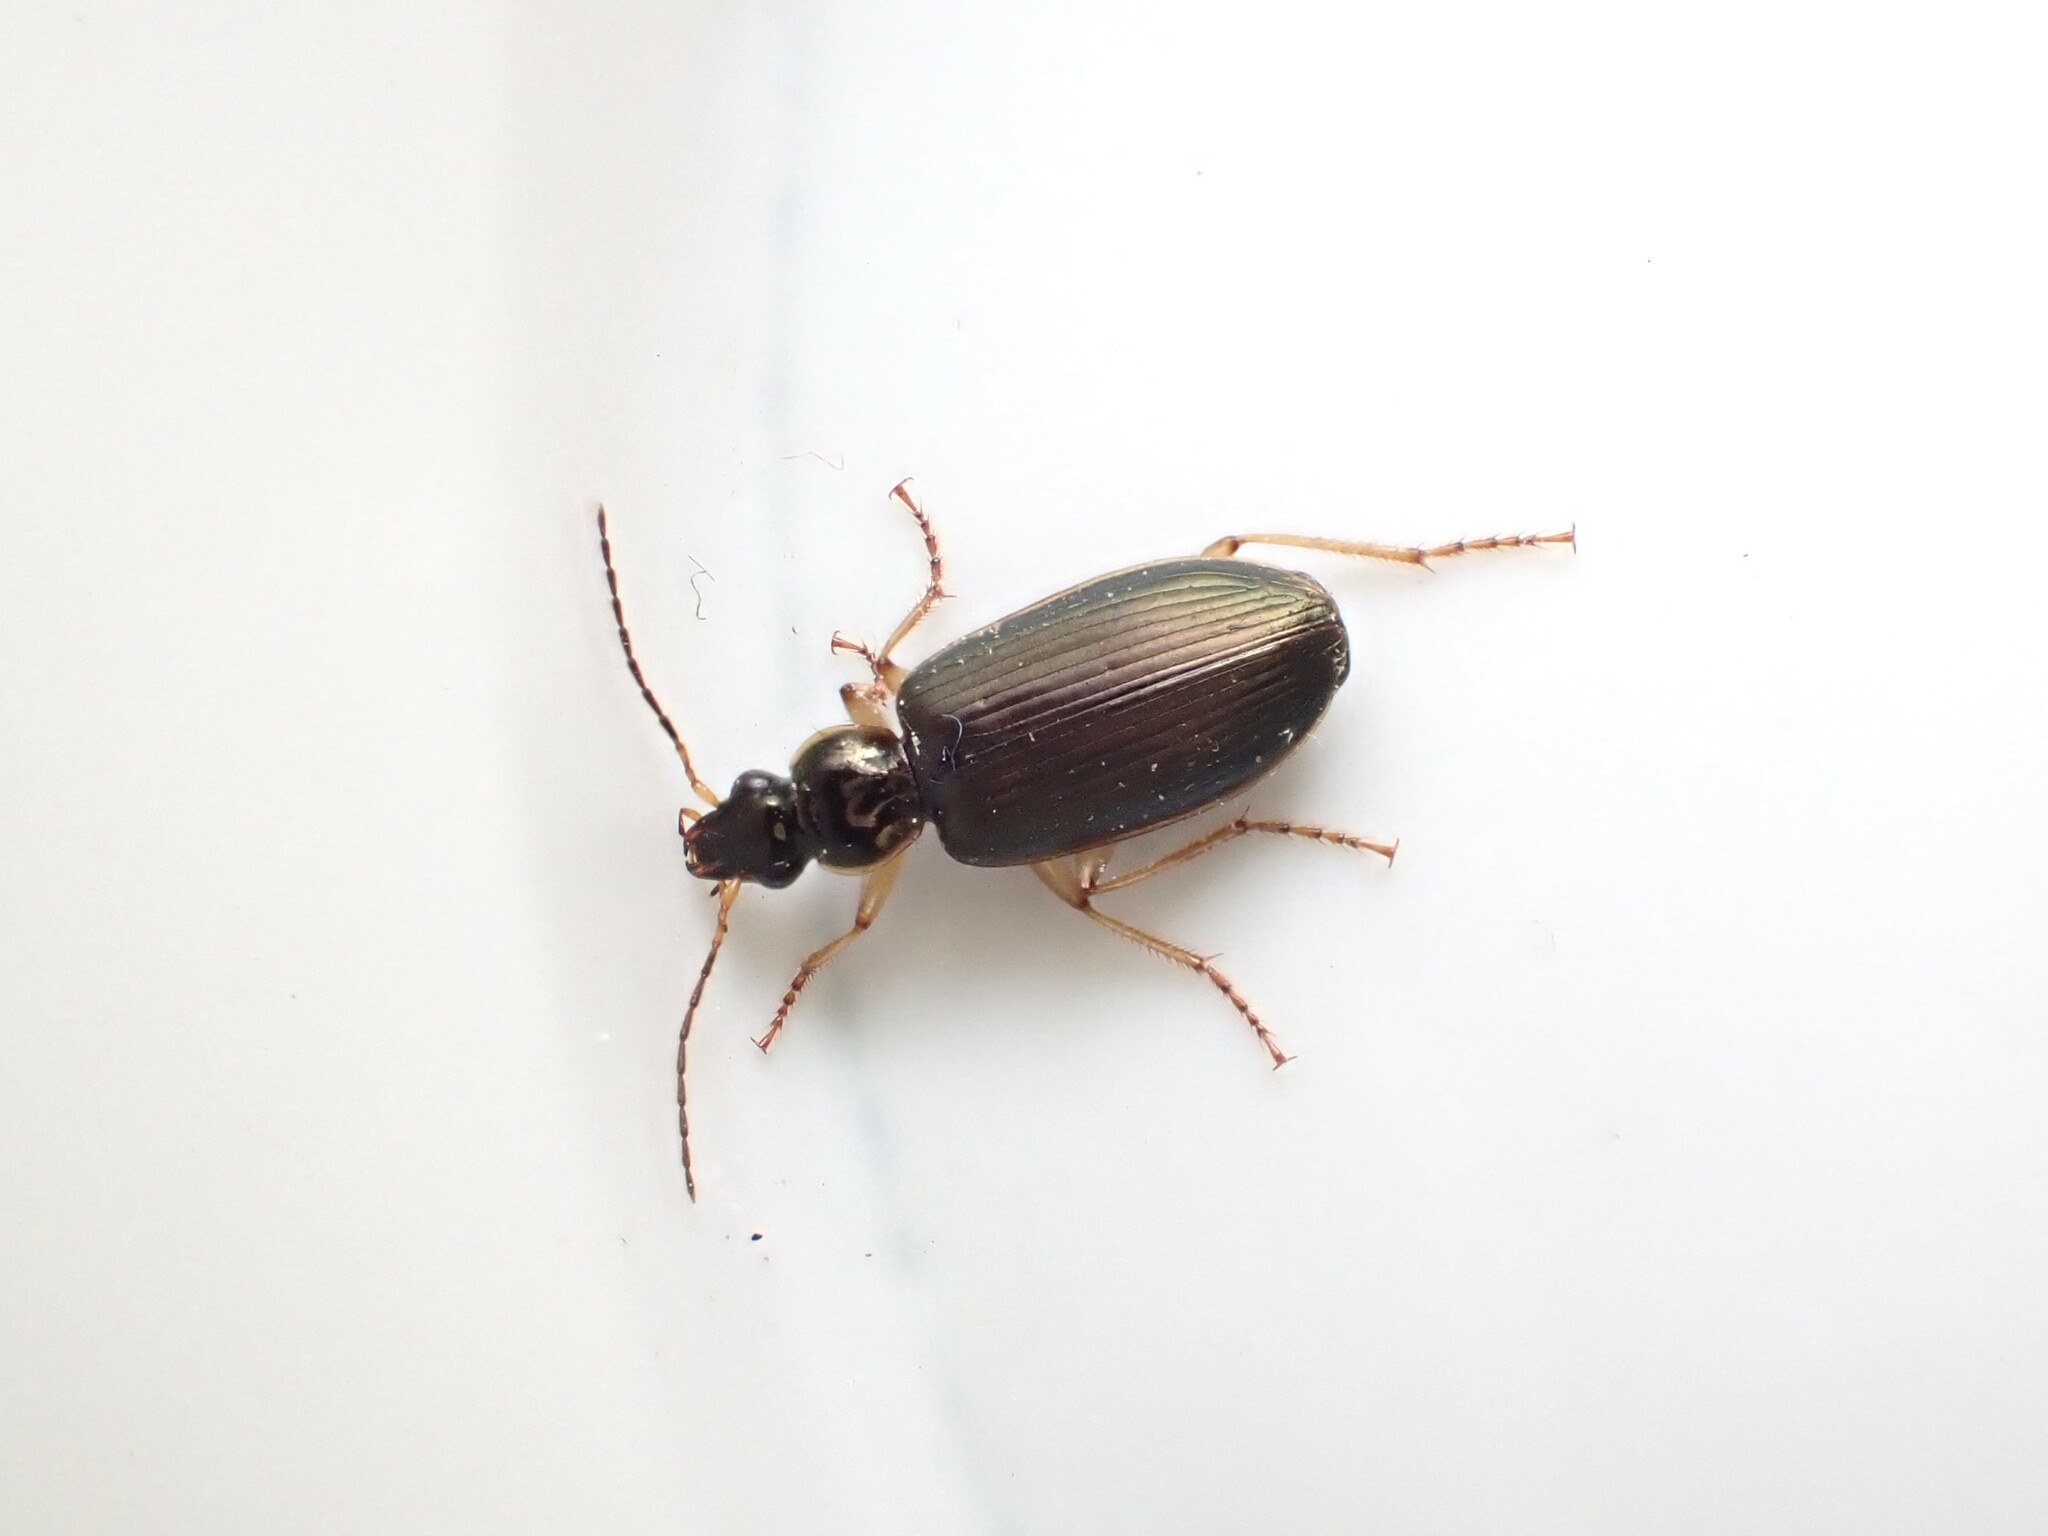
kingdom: Animalia
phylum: Arthropoda
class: Insecta
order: Coleoptera
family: Carabidae
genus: Notagonum
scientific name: Notagonum submetallicum
